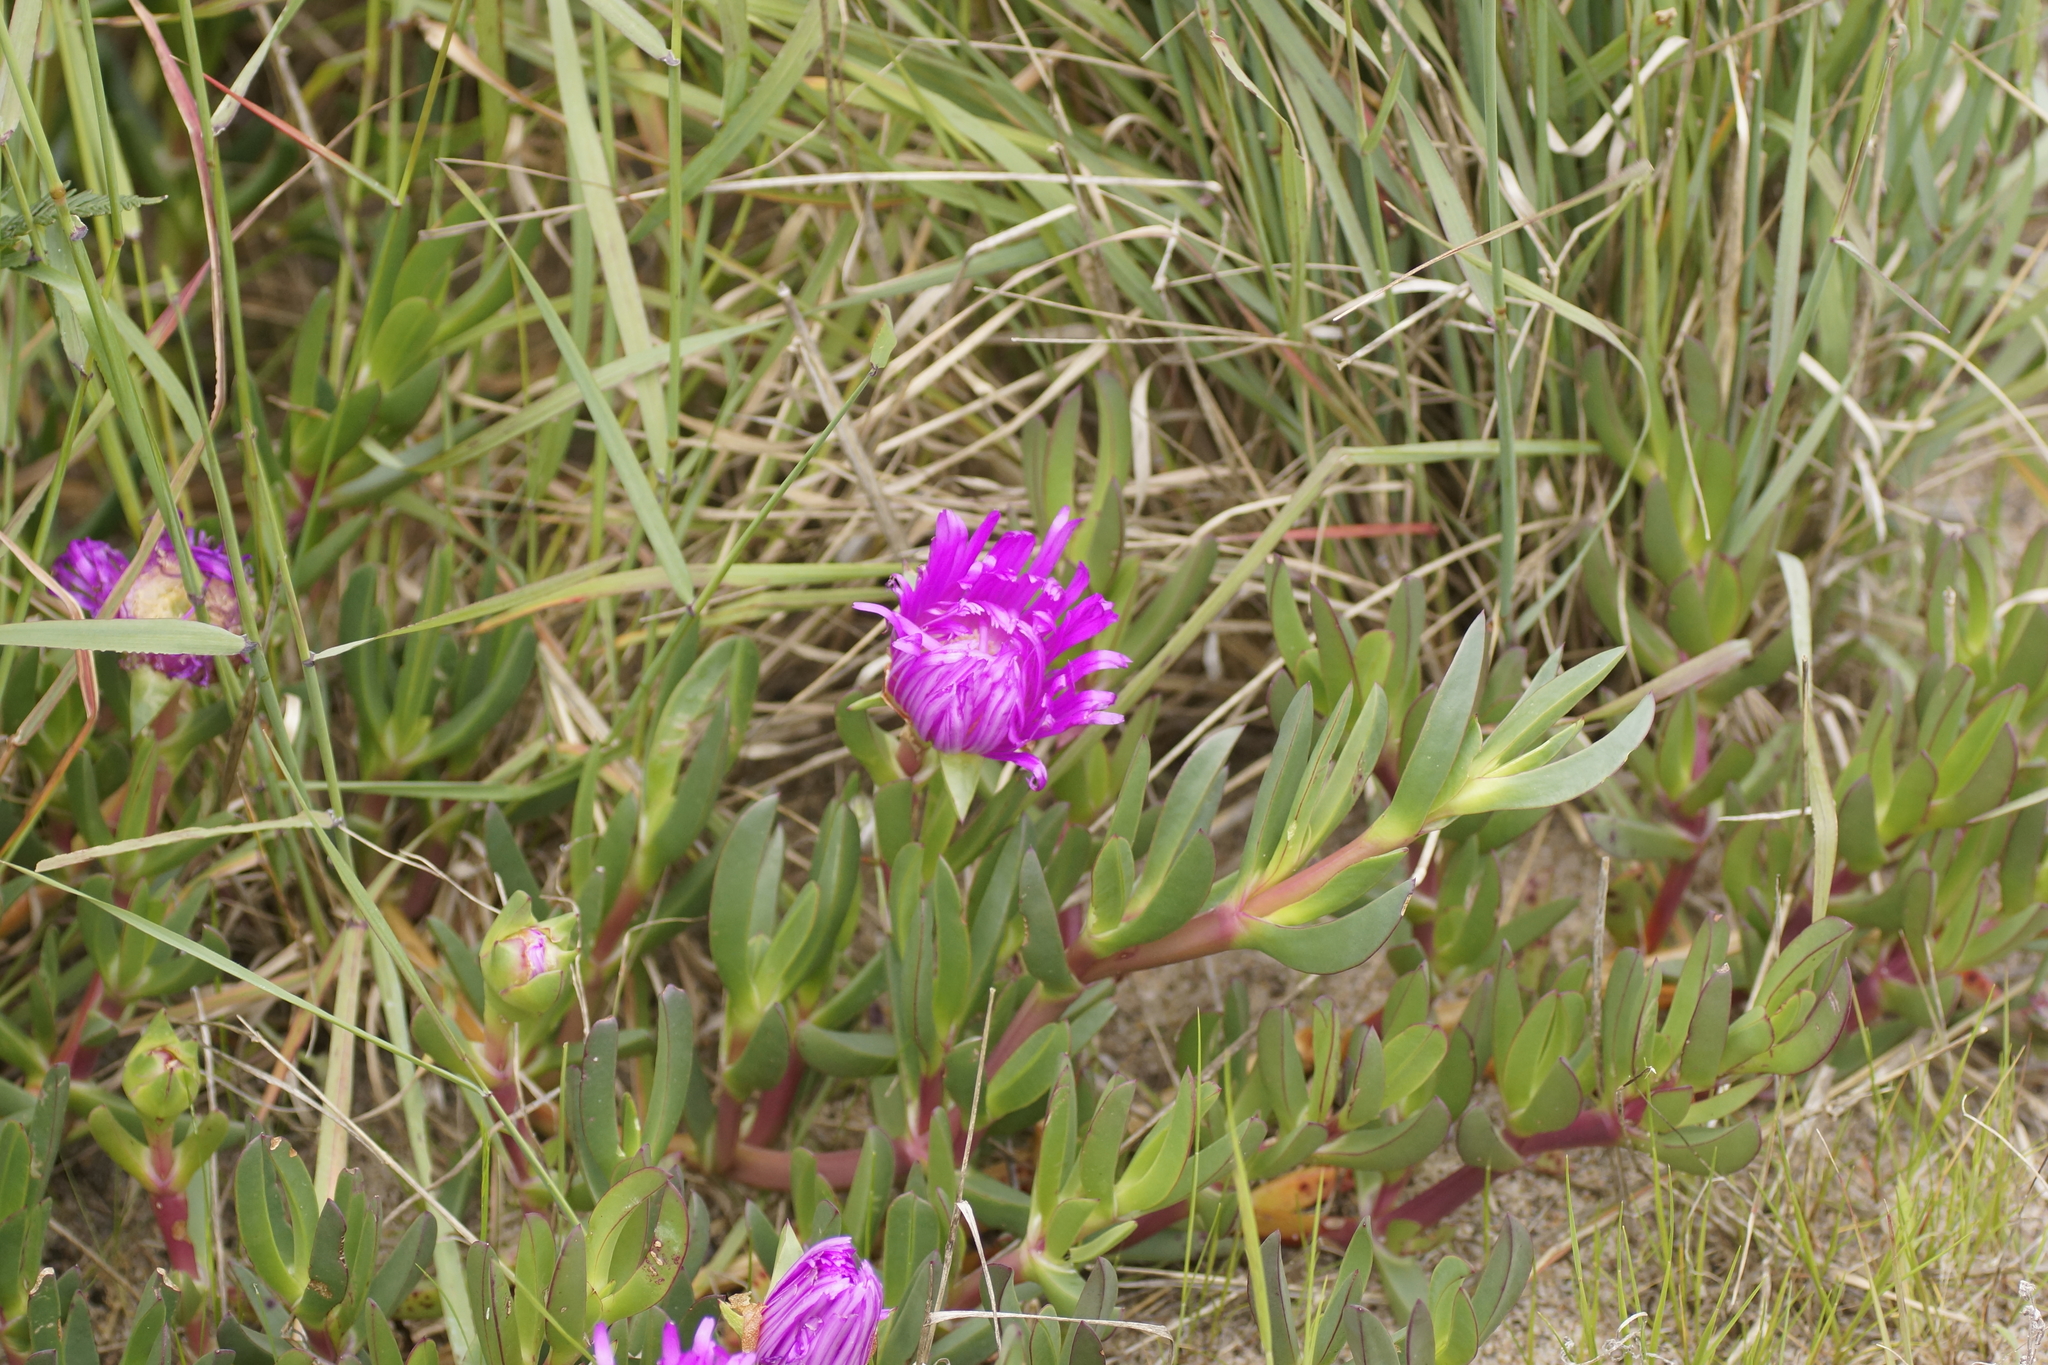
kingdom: Plantae
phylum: Tracheophyta
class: Magnoliopsida
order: Caryophyllales
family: Aizoaceae
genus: Carpobrotus
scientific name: Carpobrotus rossii
